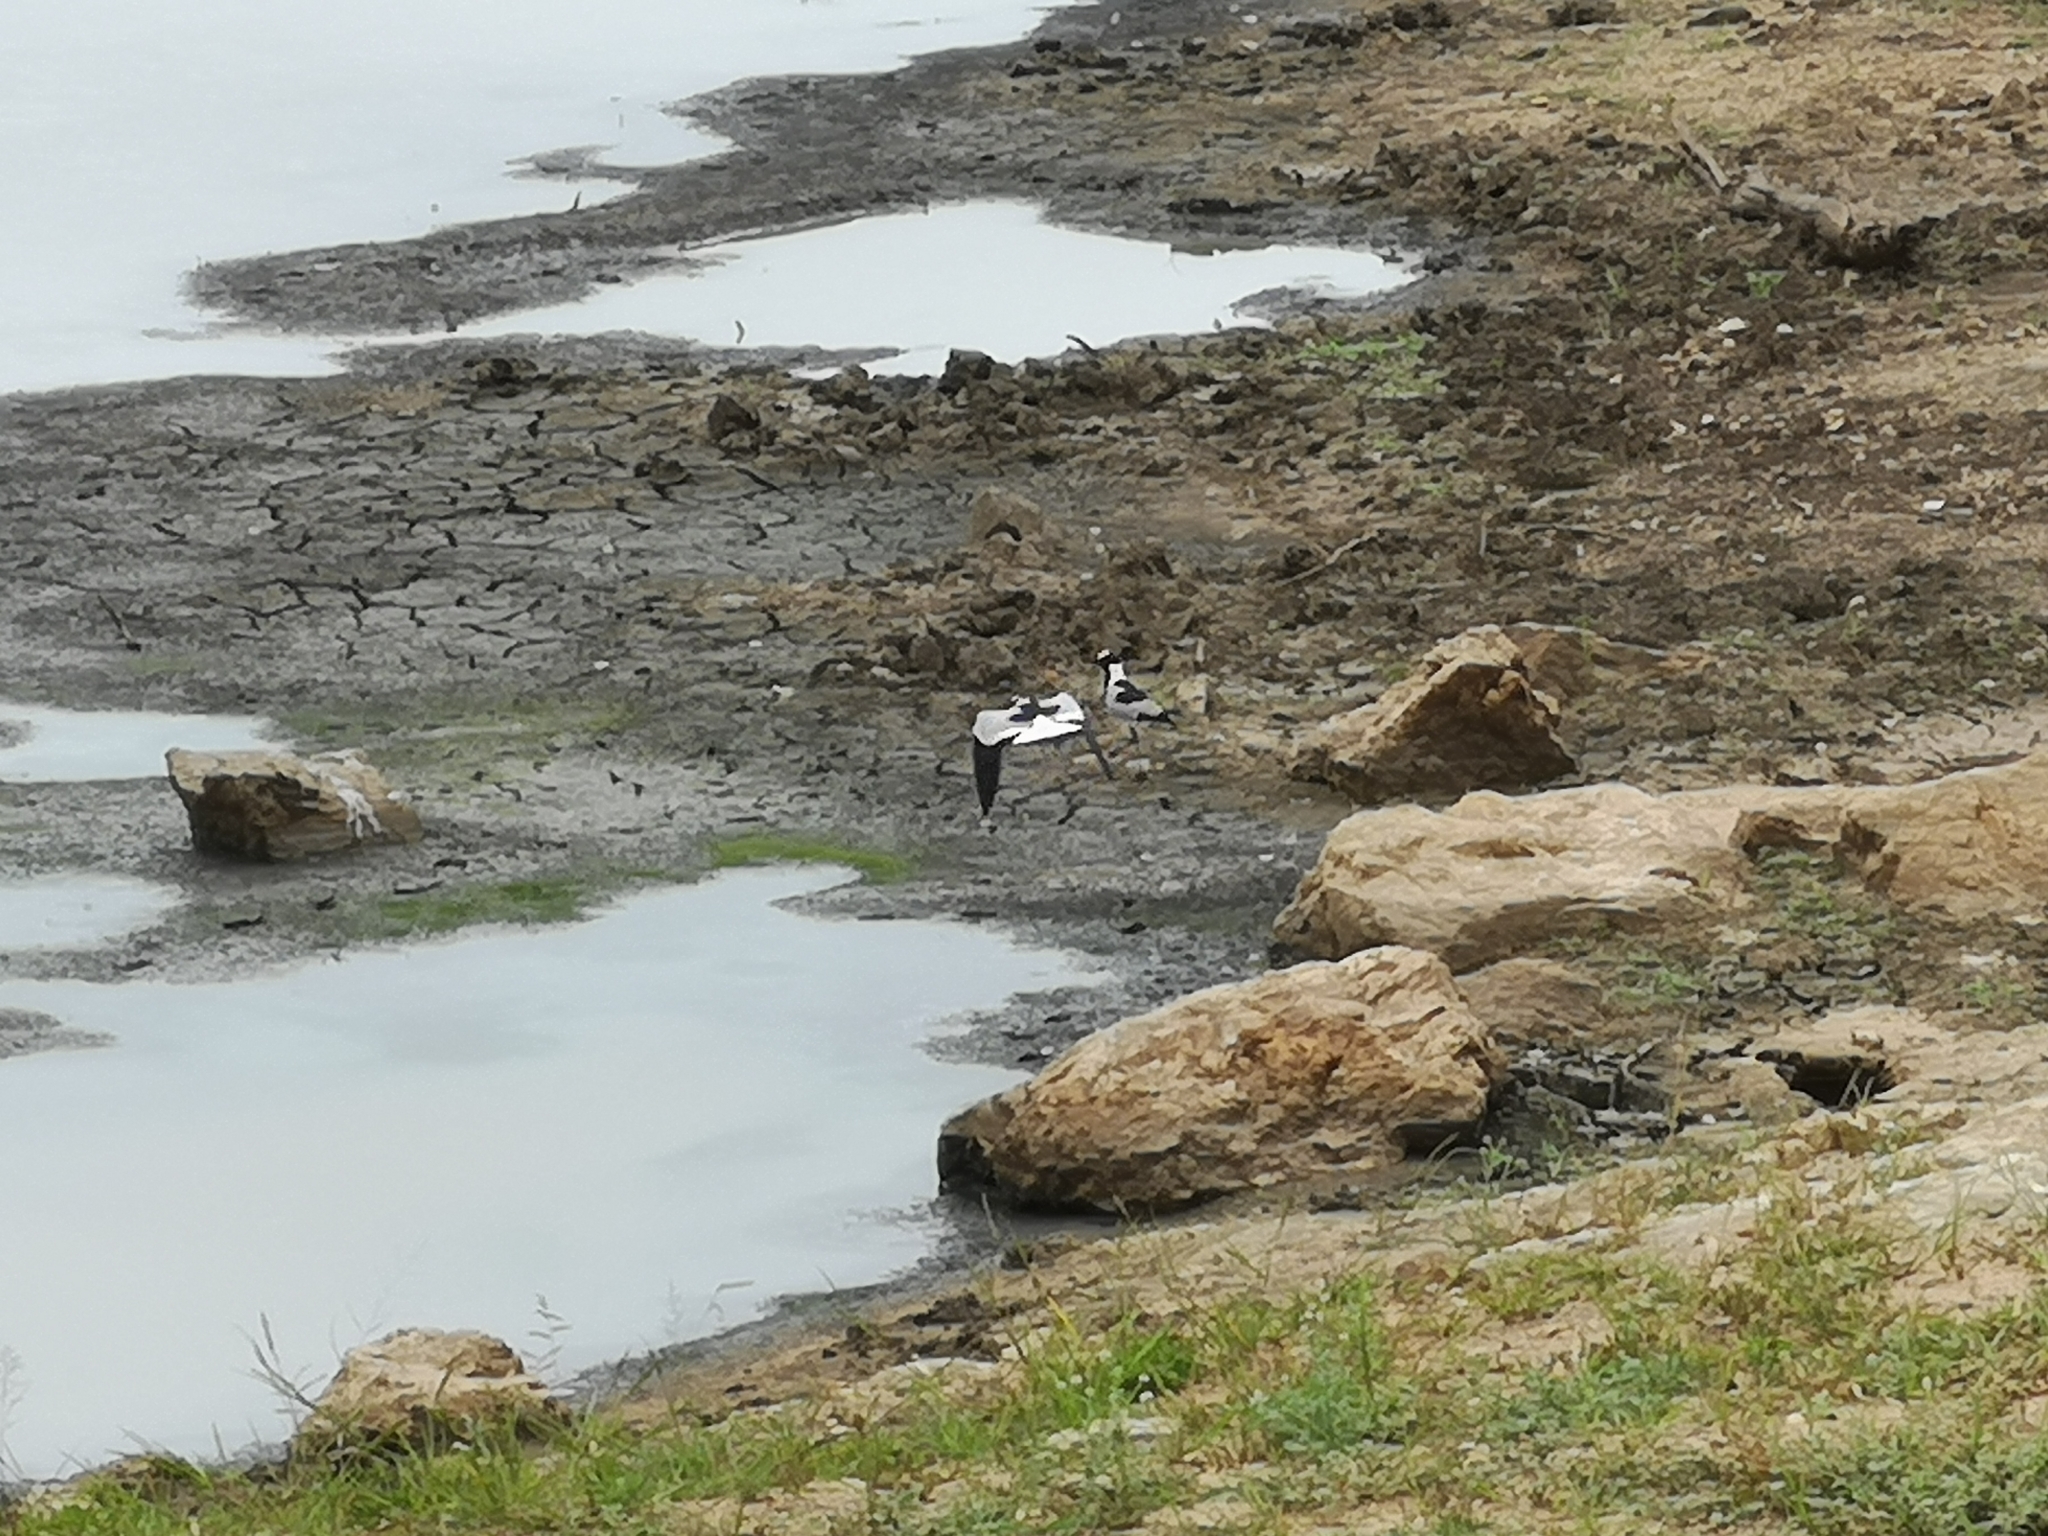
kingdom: Animalia
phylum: Chordata
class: Aves
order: Charadriiformes
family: Charadriidae
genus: Vanellus
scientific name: Vanellus armatus
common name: Blacksmith lapwing
